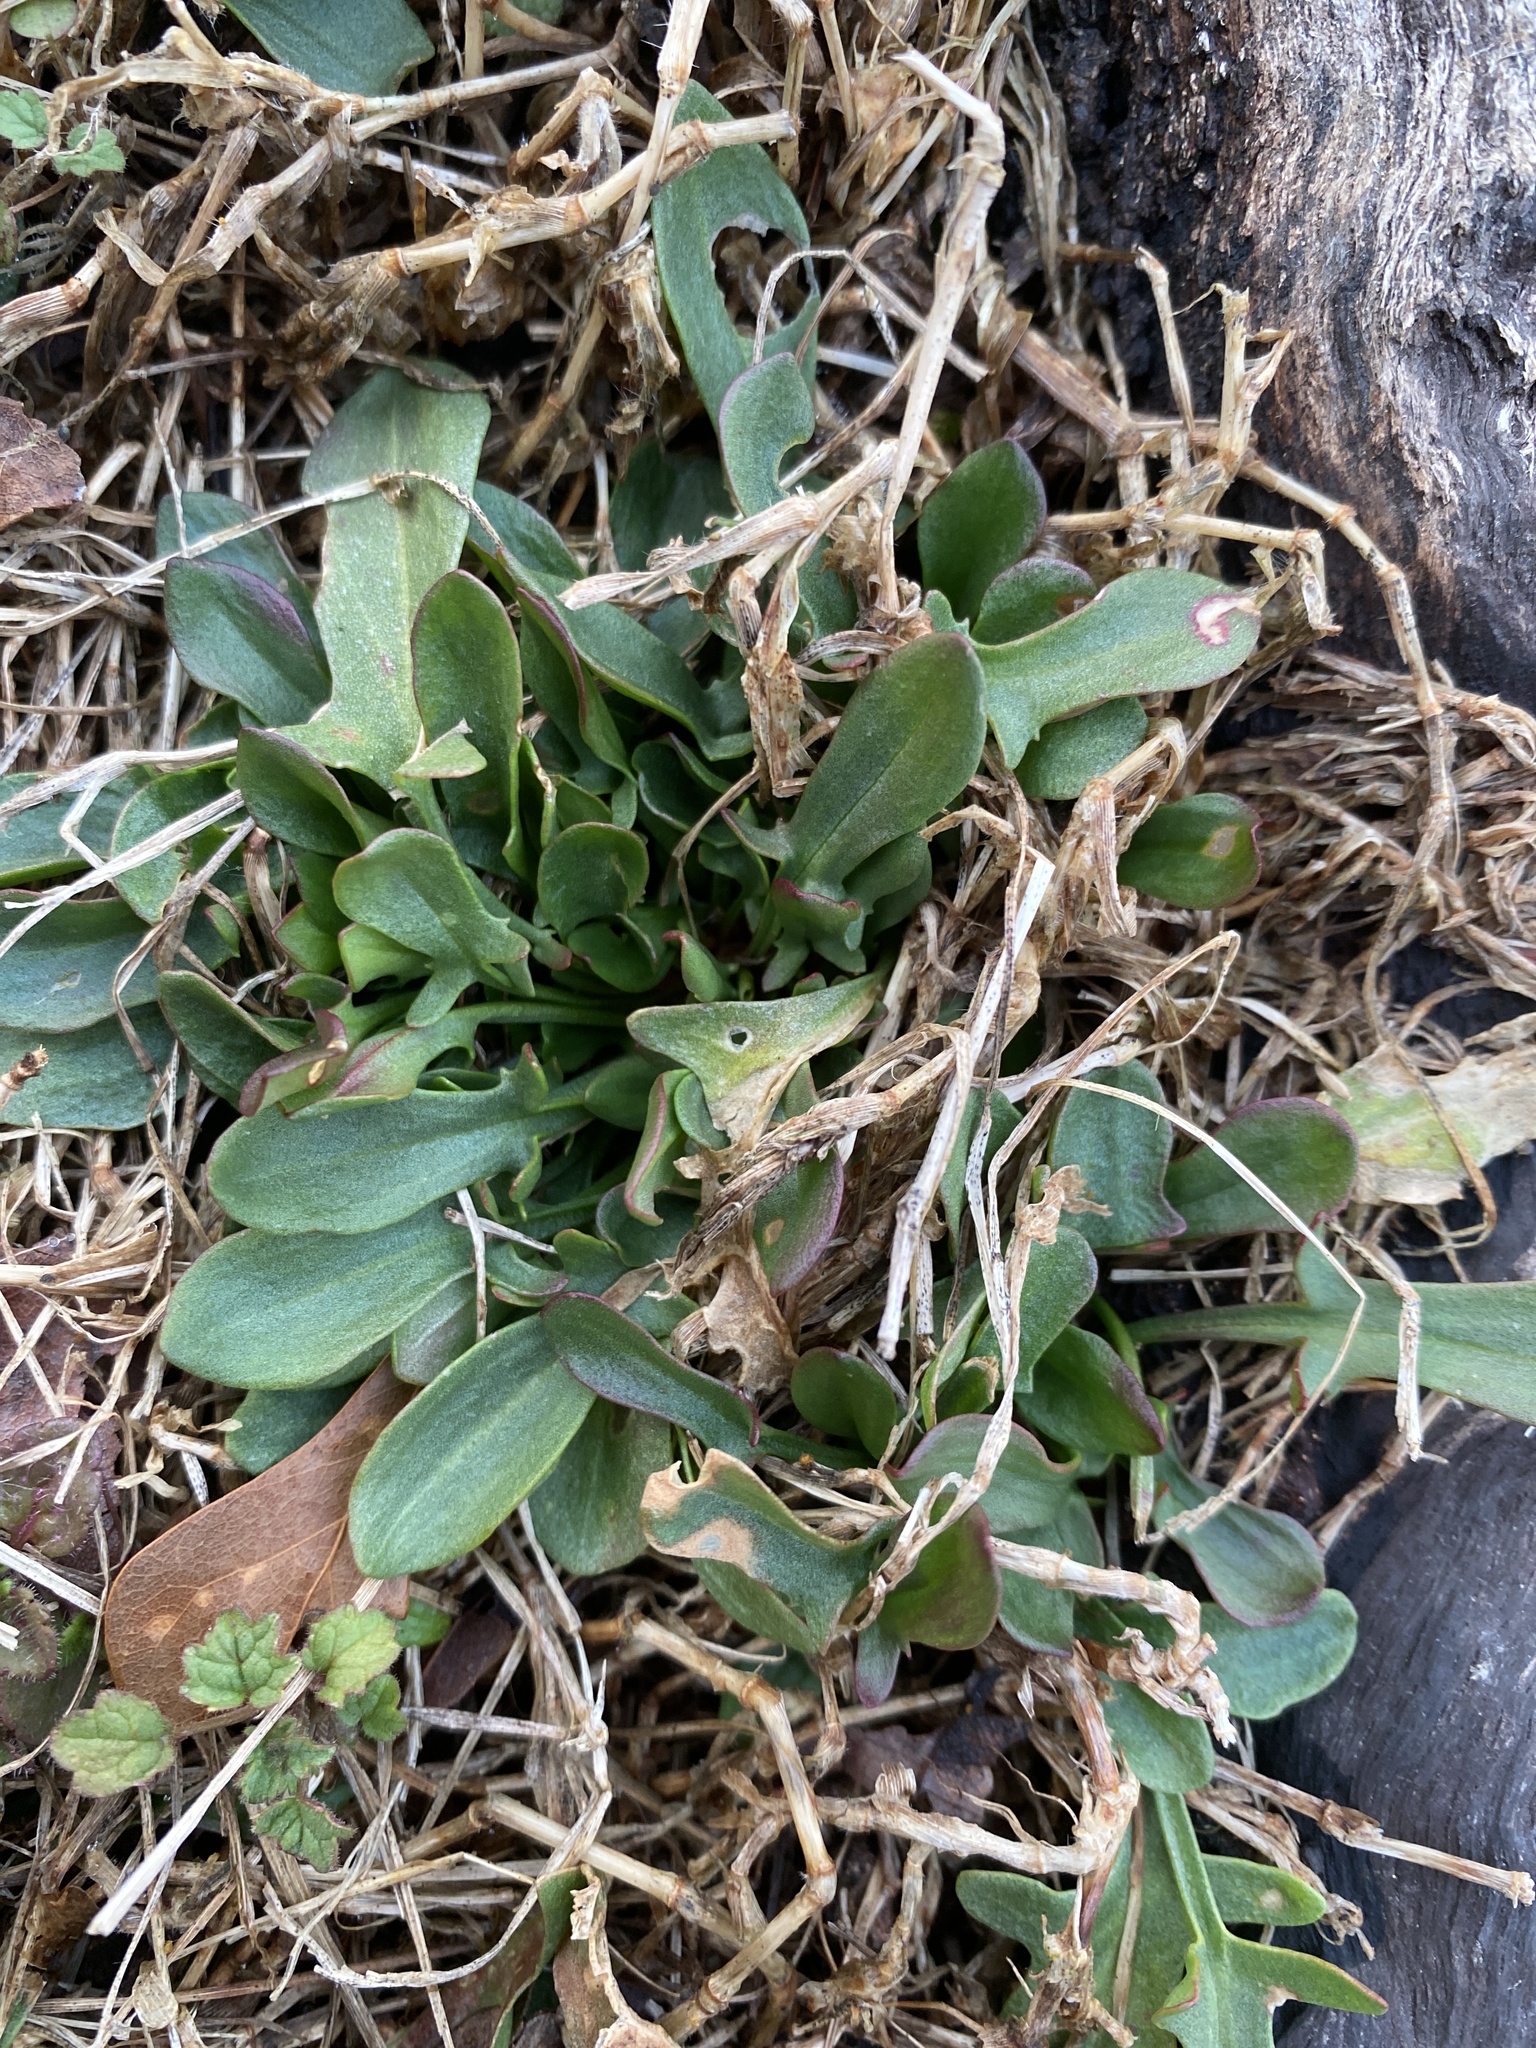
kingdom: Plantae
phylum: Tracheophyta
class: Magnoliopsida
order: Caryophyllales
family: Polygonaceae
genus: Rumex
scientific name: Rumex acetosella
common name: Common sheep sorrel
